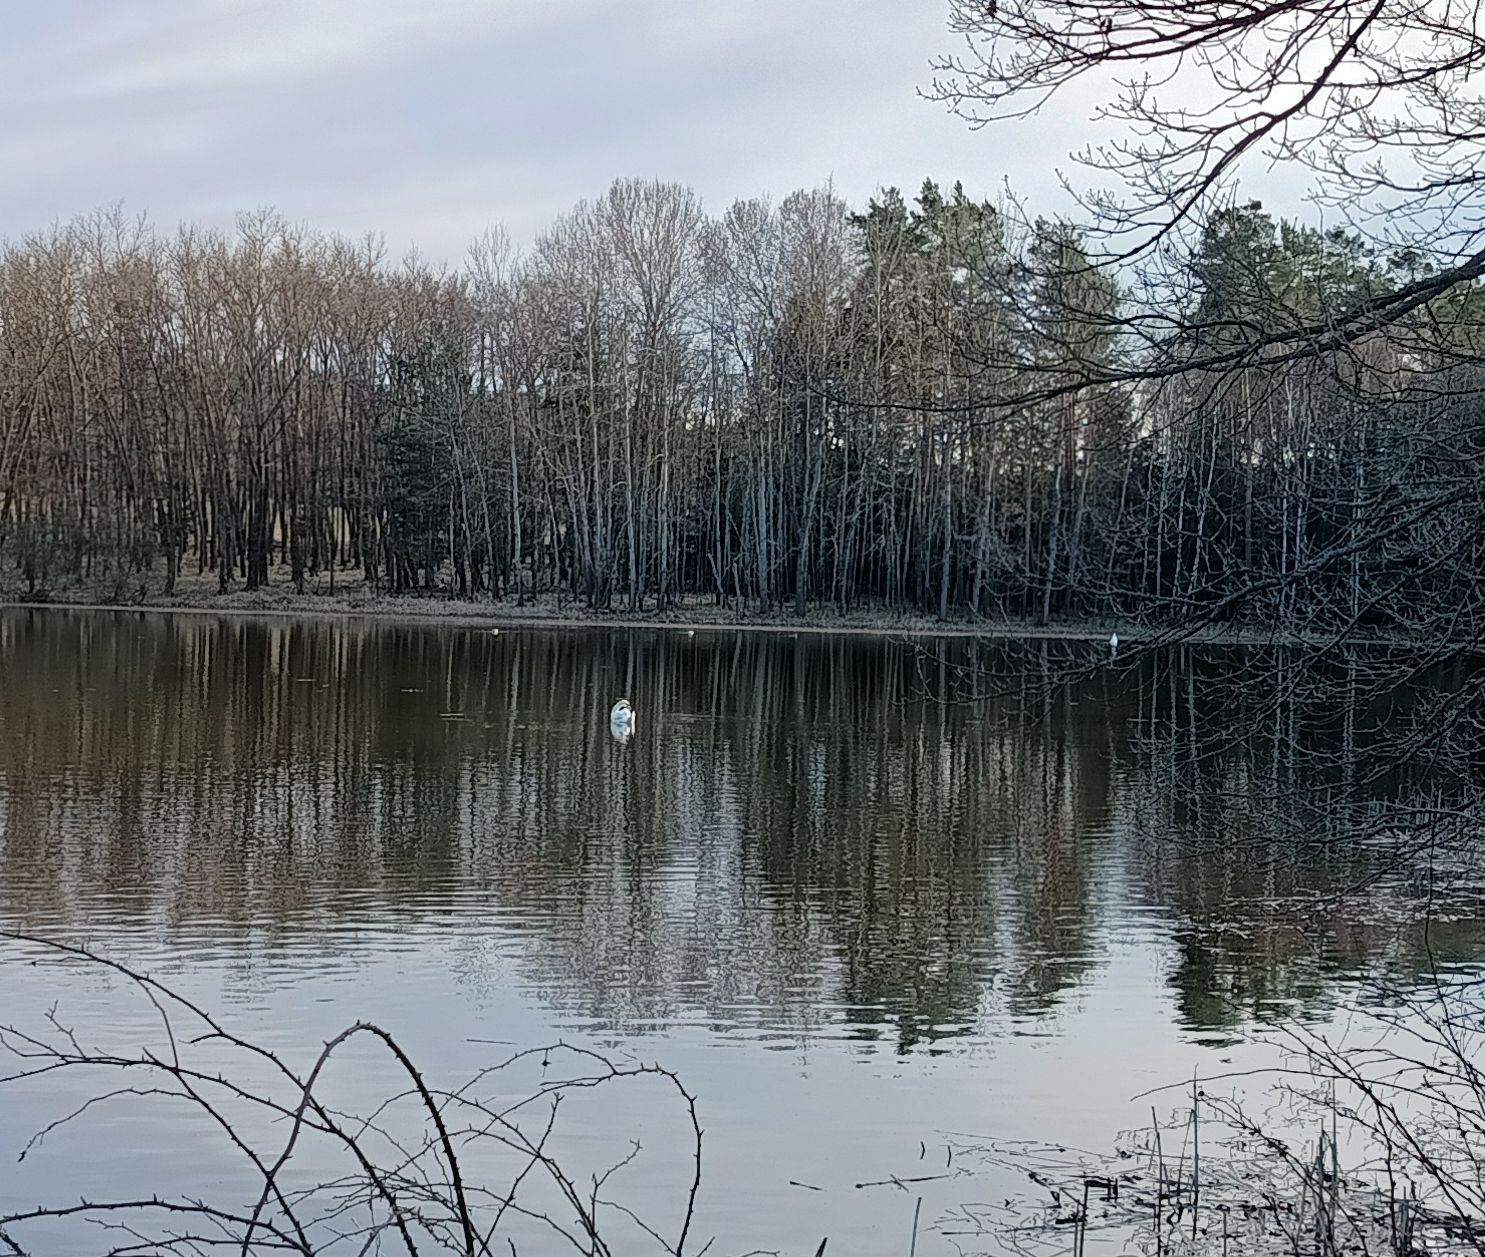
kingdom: Animalia
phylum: Chordata
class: Aves
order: Anseriformes
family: Anatidae
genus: Cygnus
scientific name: Cygnus olor
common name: Mute swan
